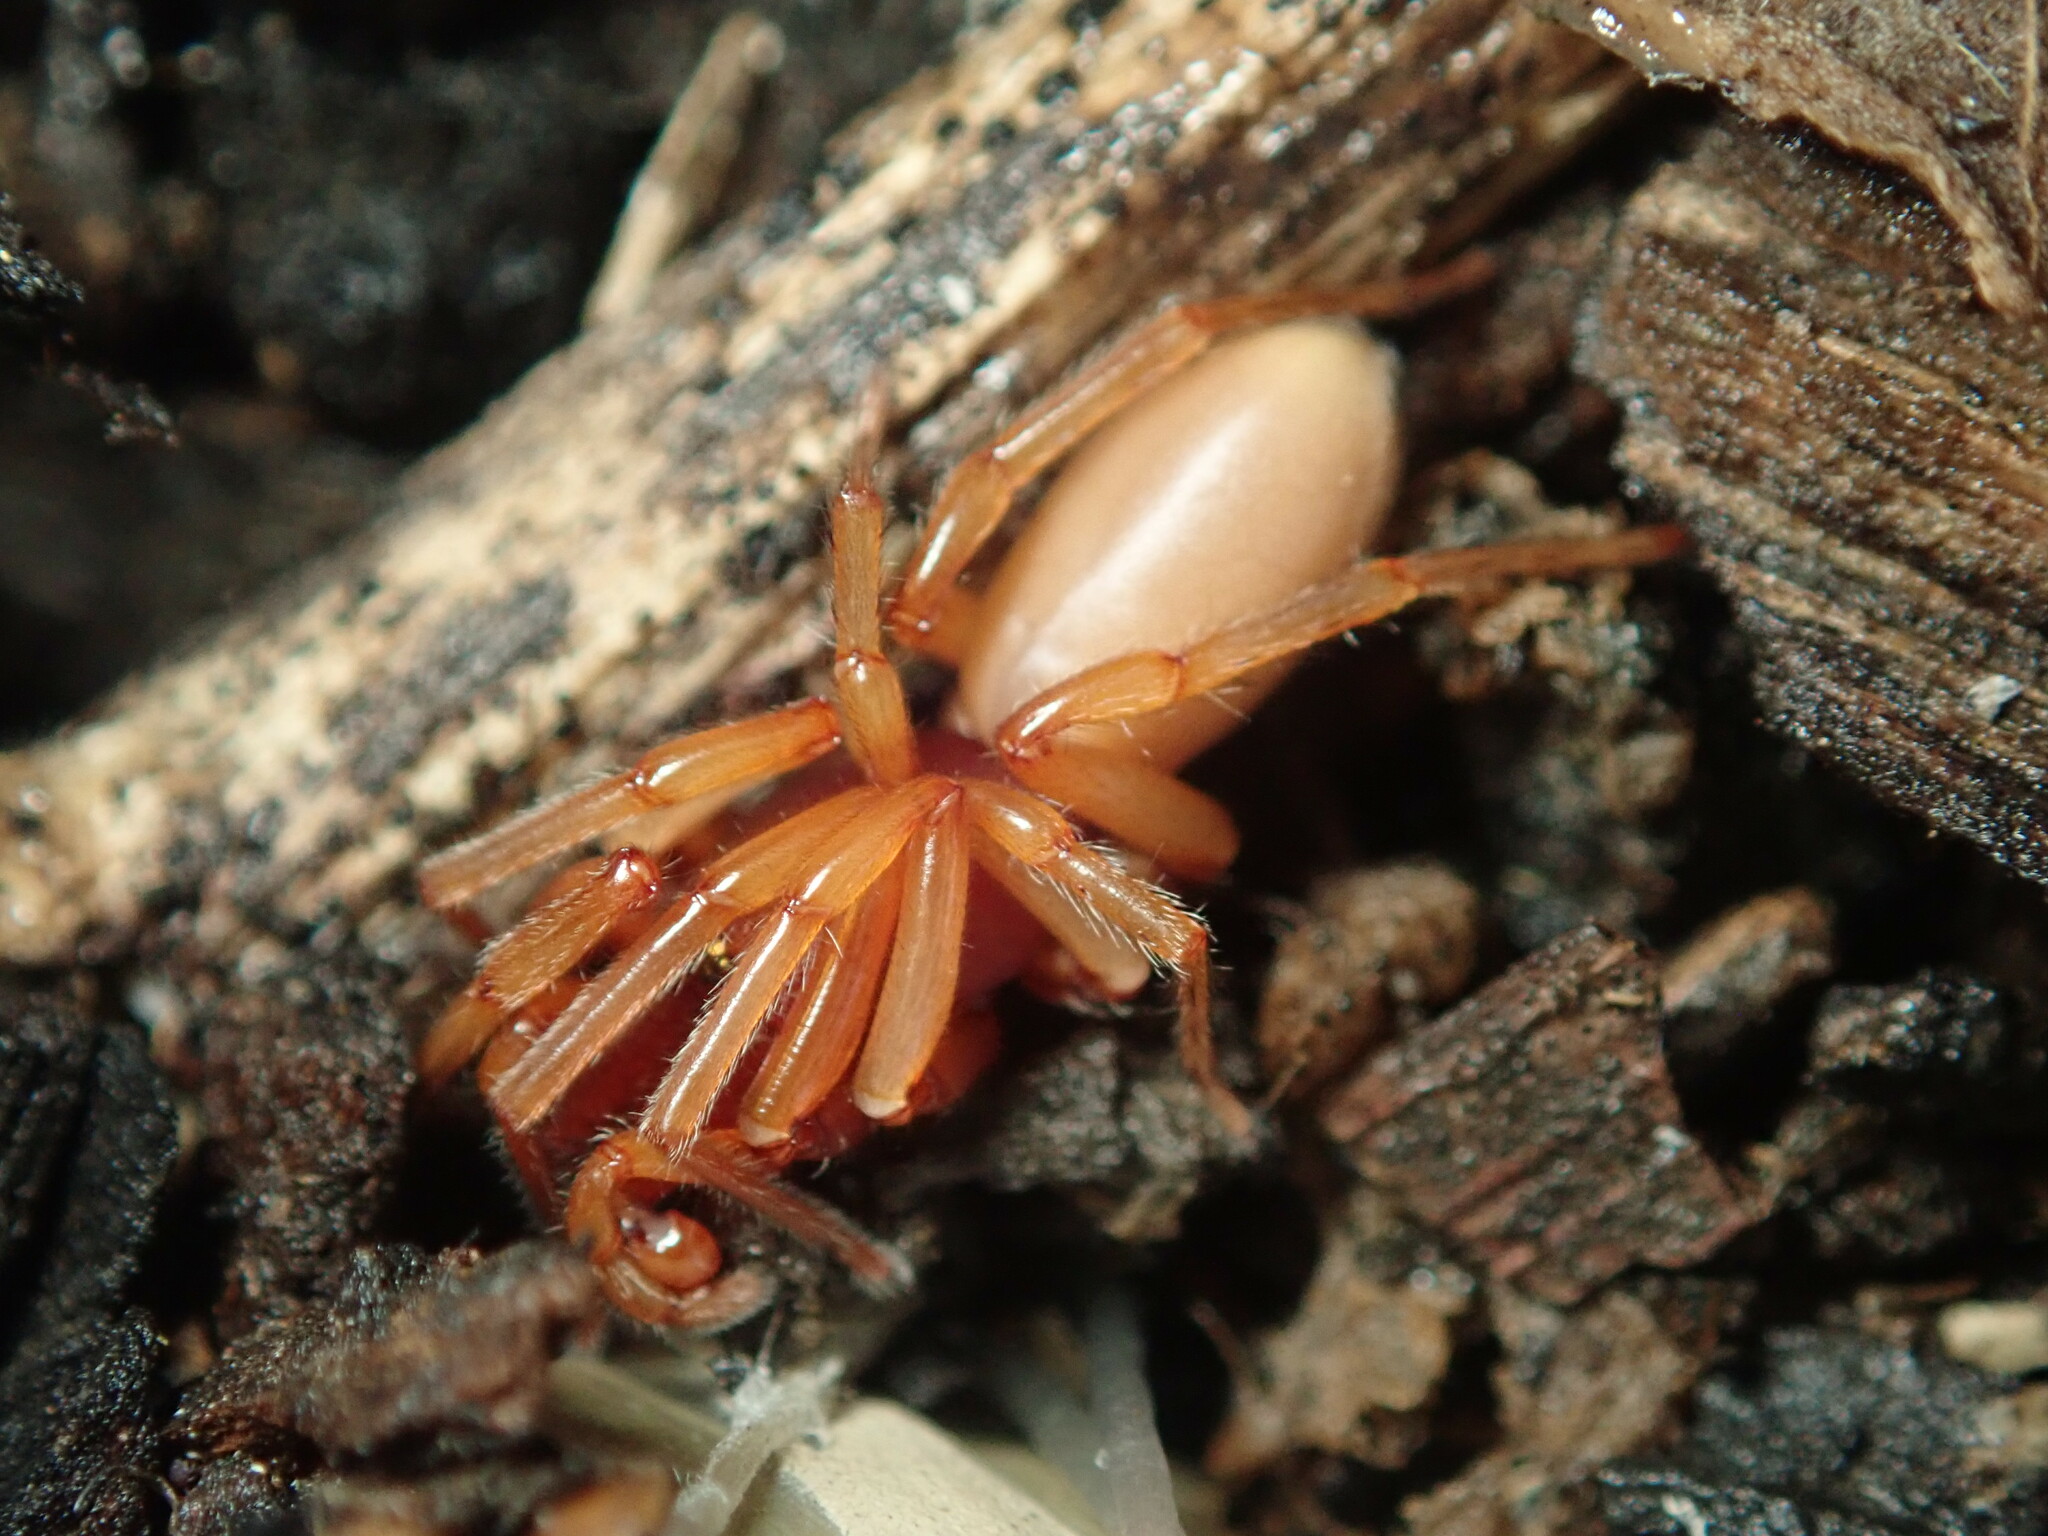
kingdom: Animalia
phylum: Arthropoda
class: Arachnida
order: Araneae
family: Dysderidae
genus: Dysdera
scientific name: Dysdera crocata
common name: Woodlouse spider
